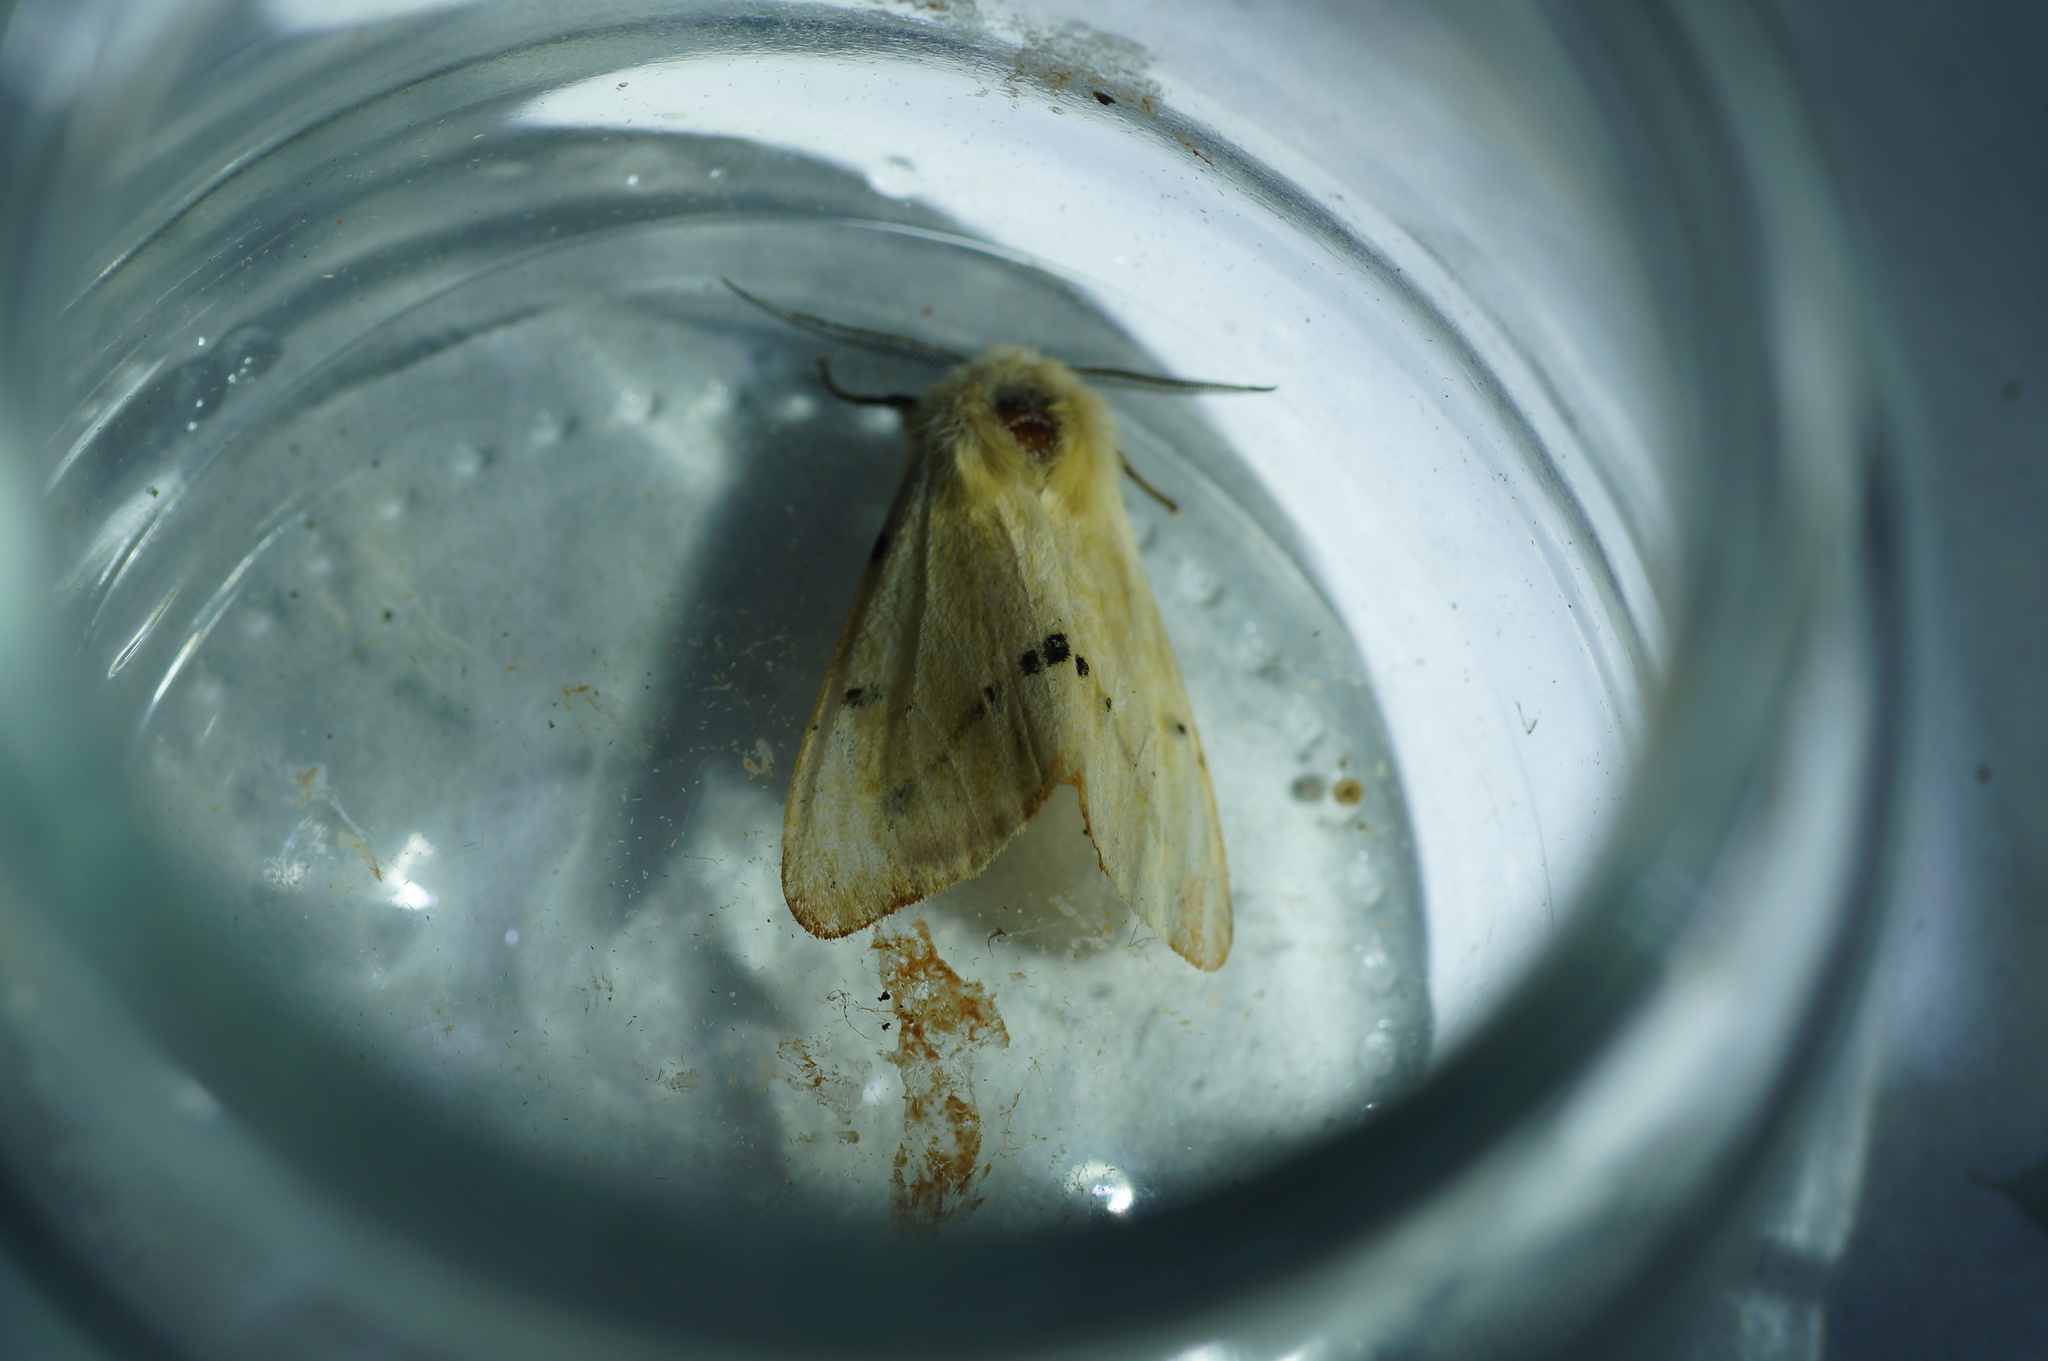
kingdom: Animalia
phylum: Arthropoda
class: Insecta
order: Lepidoptera
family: Erebidae
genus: Spilarctia
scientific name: Spilarctia lutea
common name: Buff ermine
